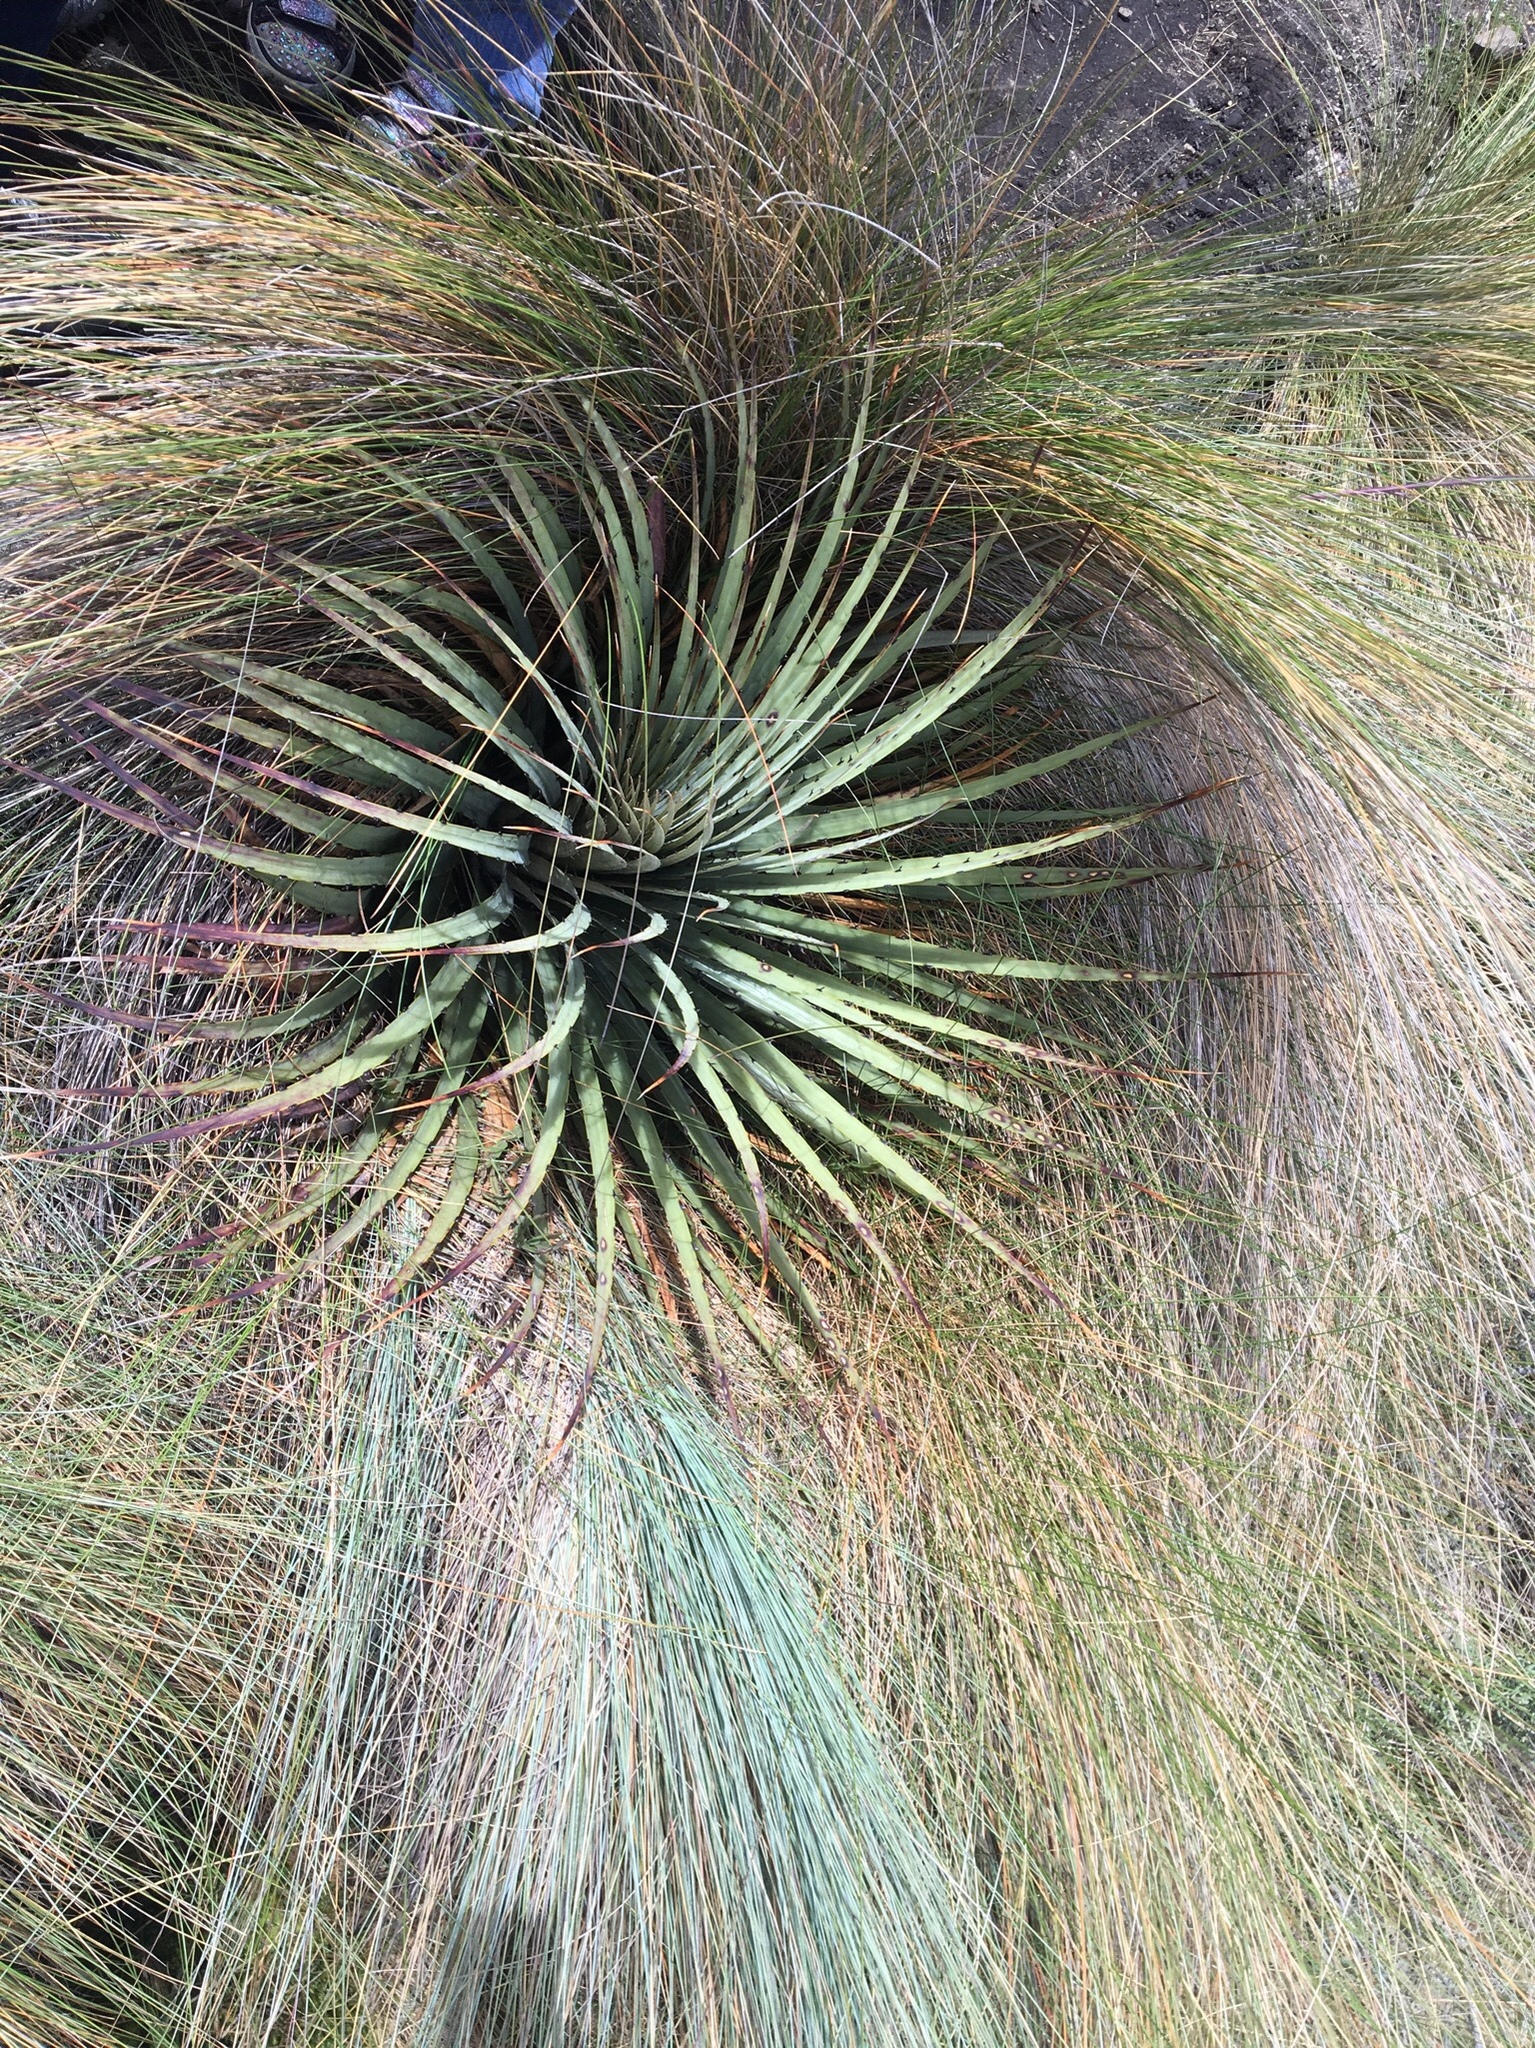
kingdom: Plantae
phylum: Tracheophyta
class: Liliopsida
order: Poales
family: Bromeliaceae
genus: Puya
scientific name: Puya clava-herculis
